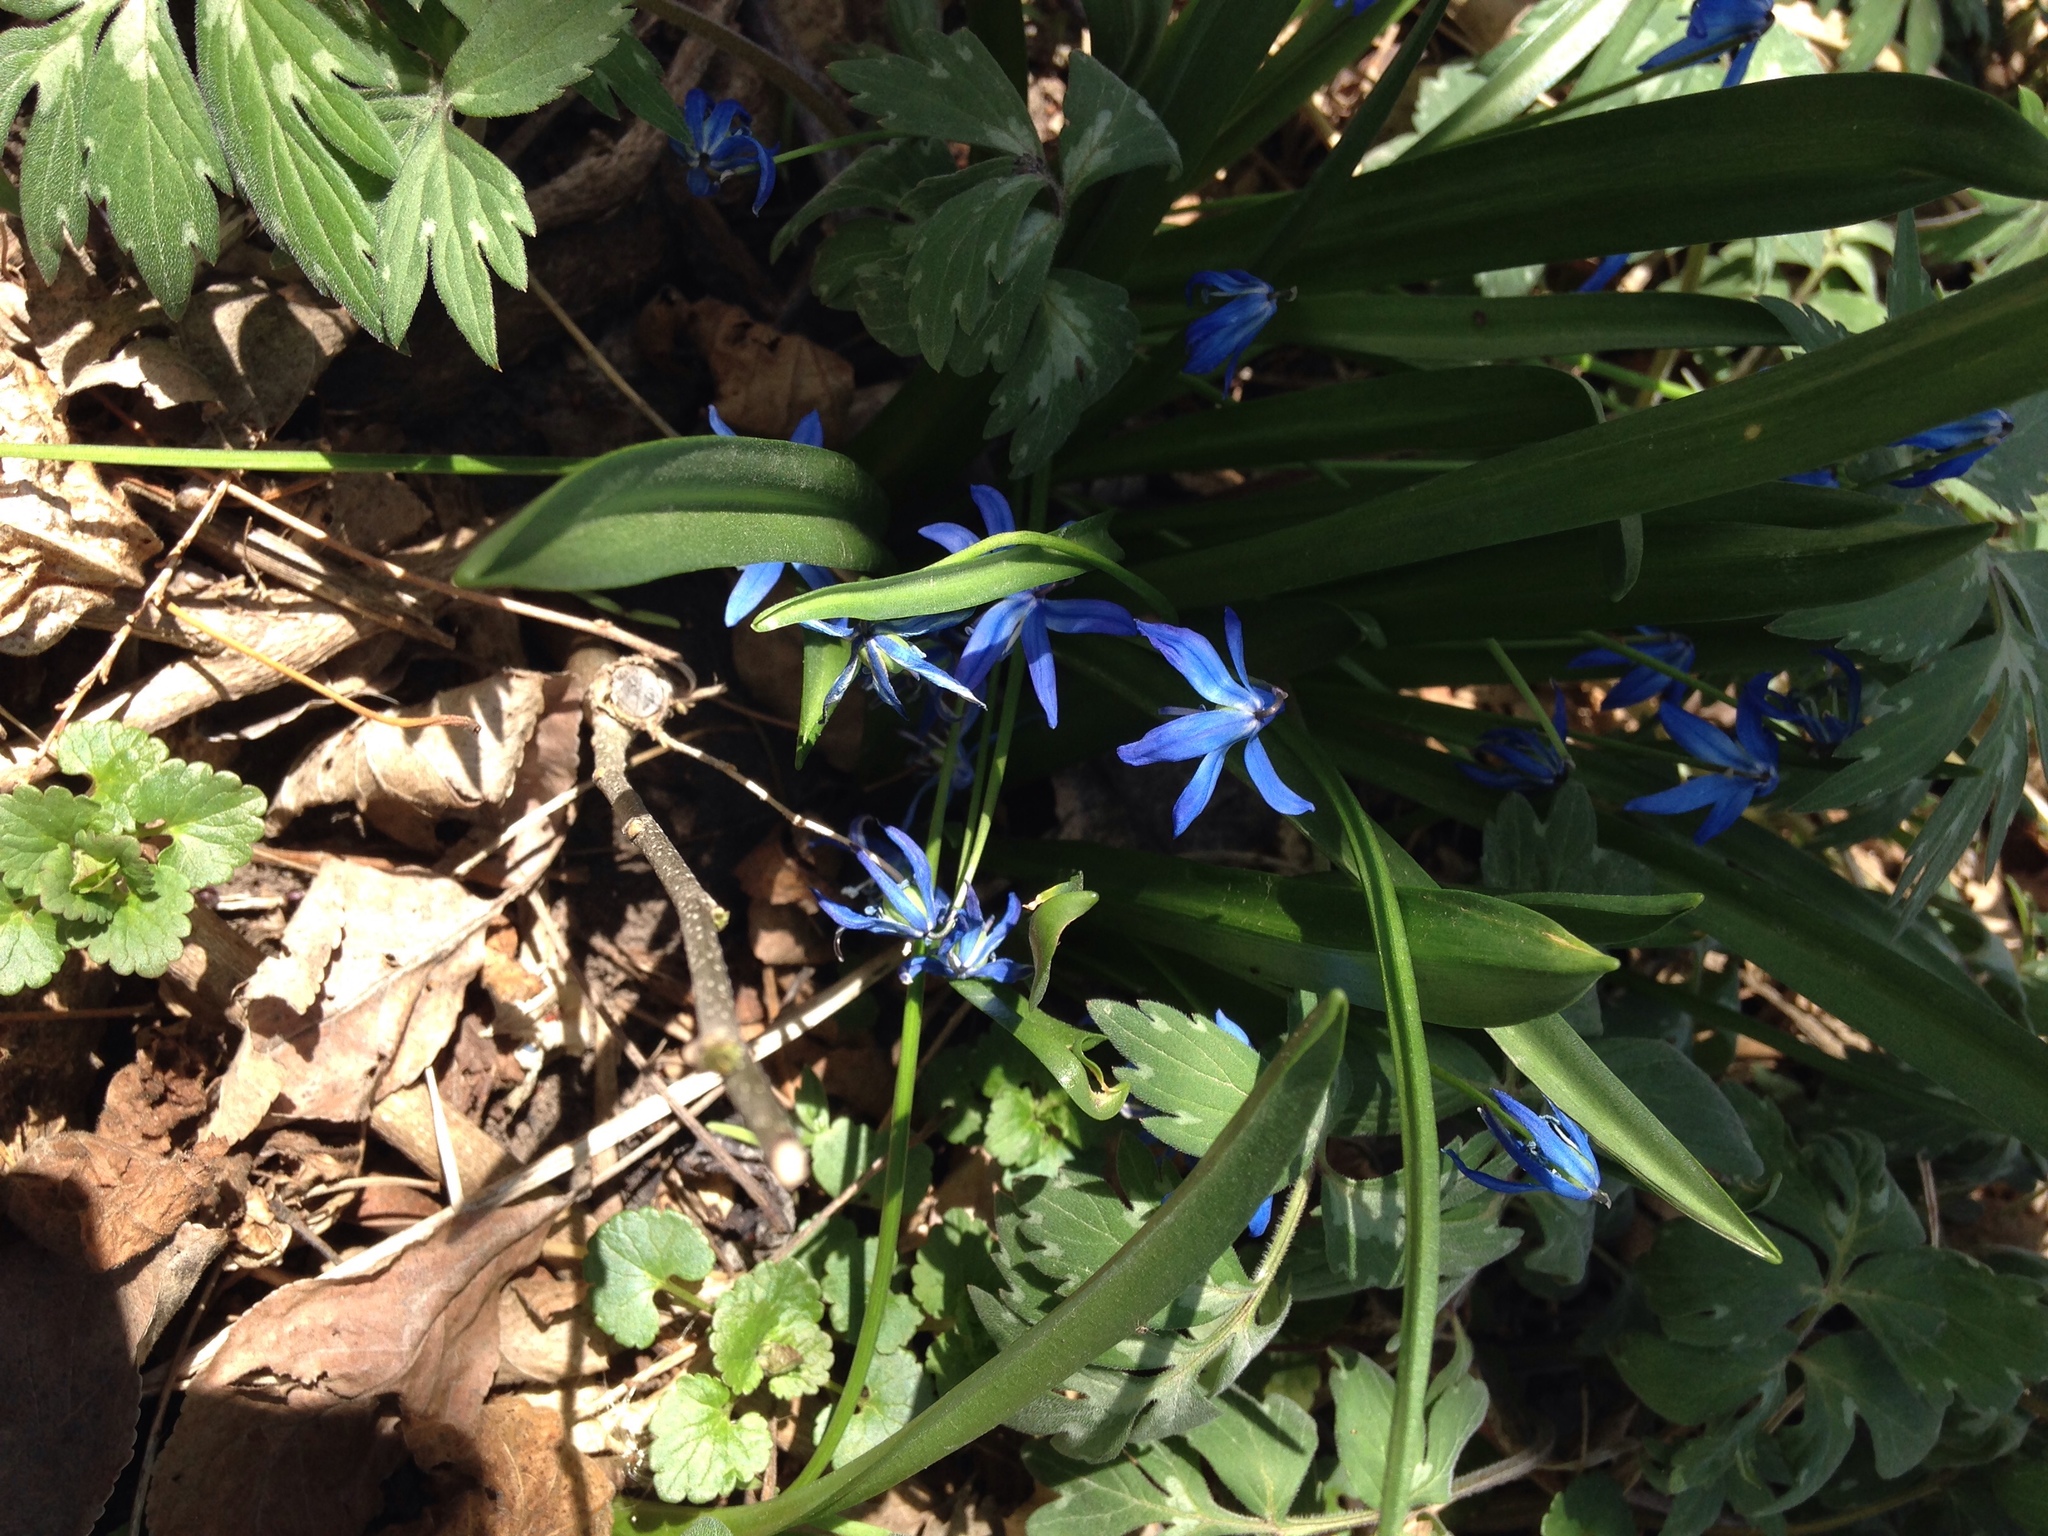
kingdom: Plantae
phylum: Tracheophyta
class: Liliopsida
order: Asparagales
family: Asparagaceae
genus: Scilla
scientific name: Scilla siberica
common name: Siberian squill
